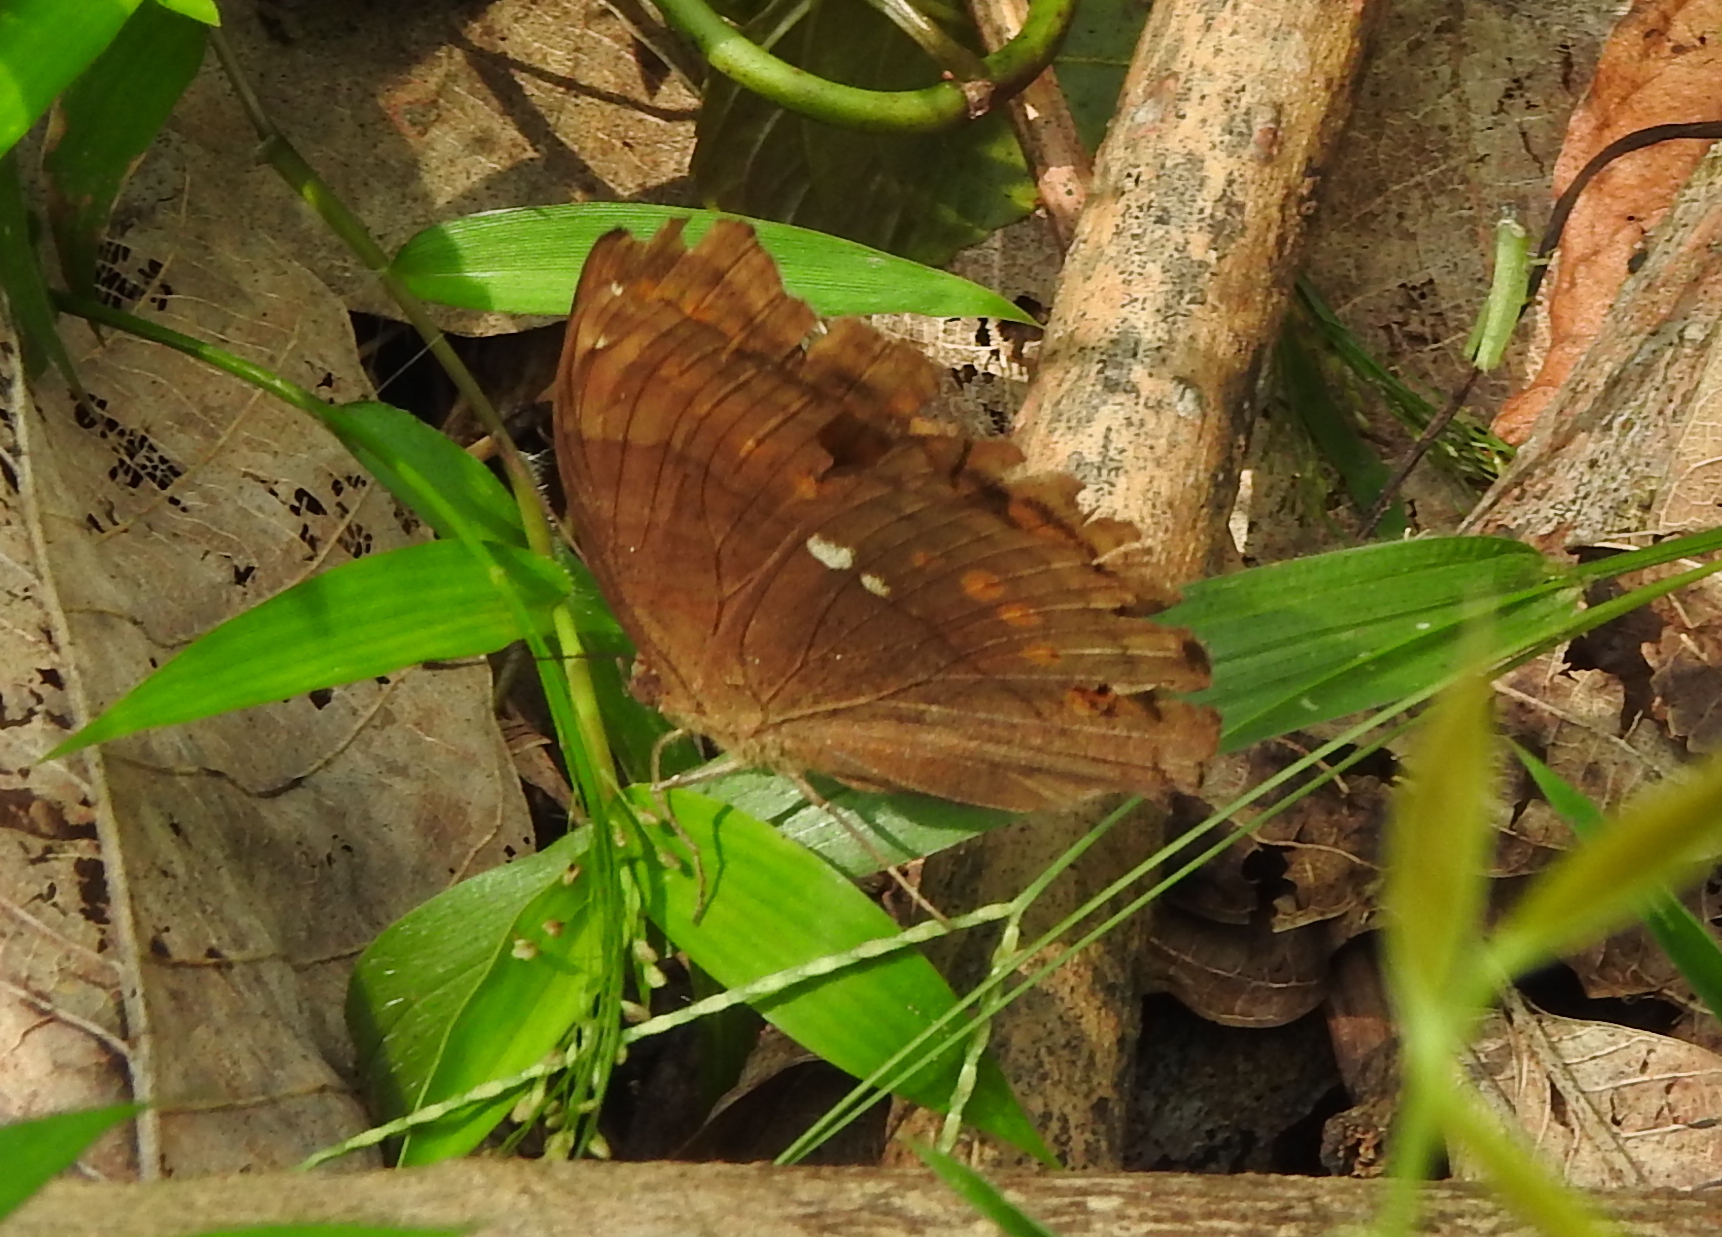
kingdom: Animalia
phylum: Arthropoda
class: Insecta
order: Lepidoptera
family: Nymphalidae
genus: Junonia
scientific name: Junonia hedonia
